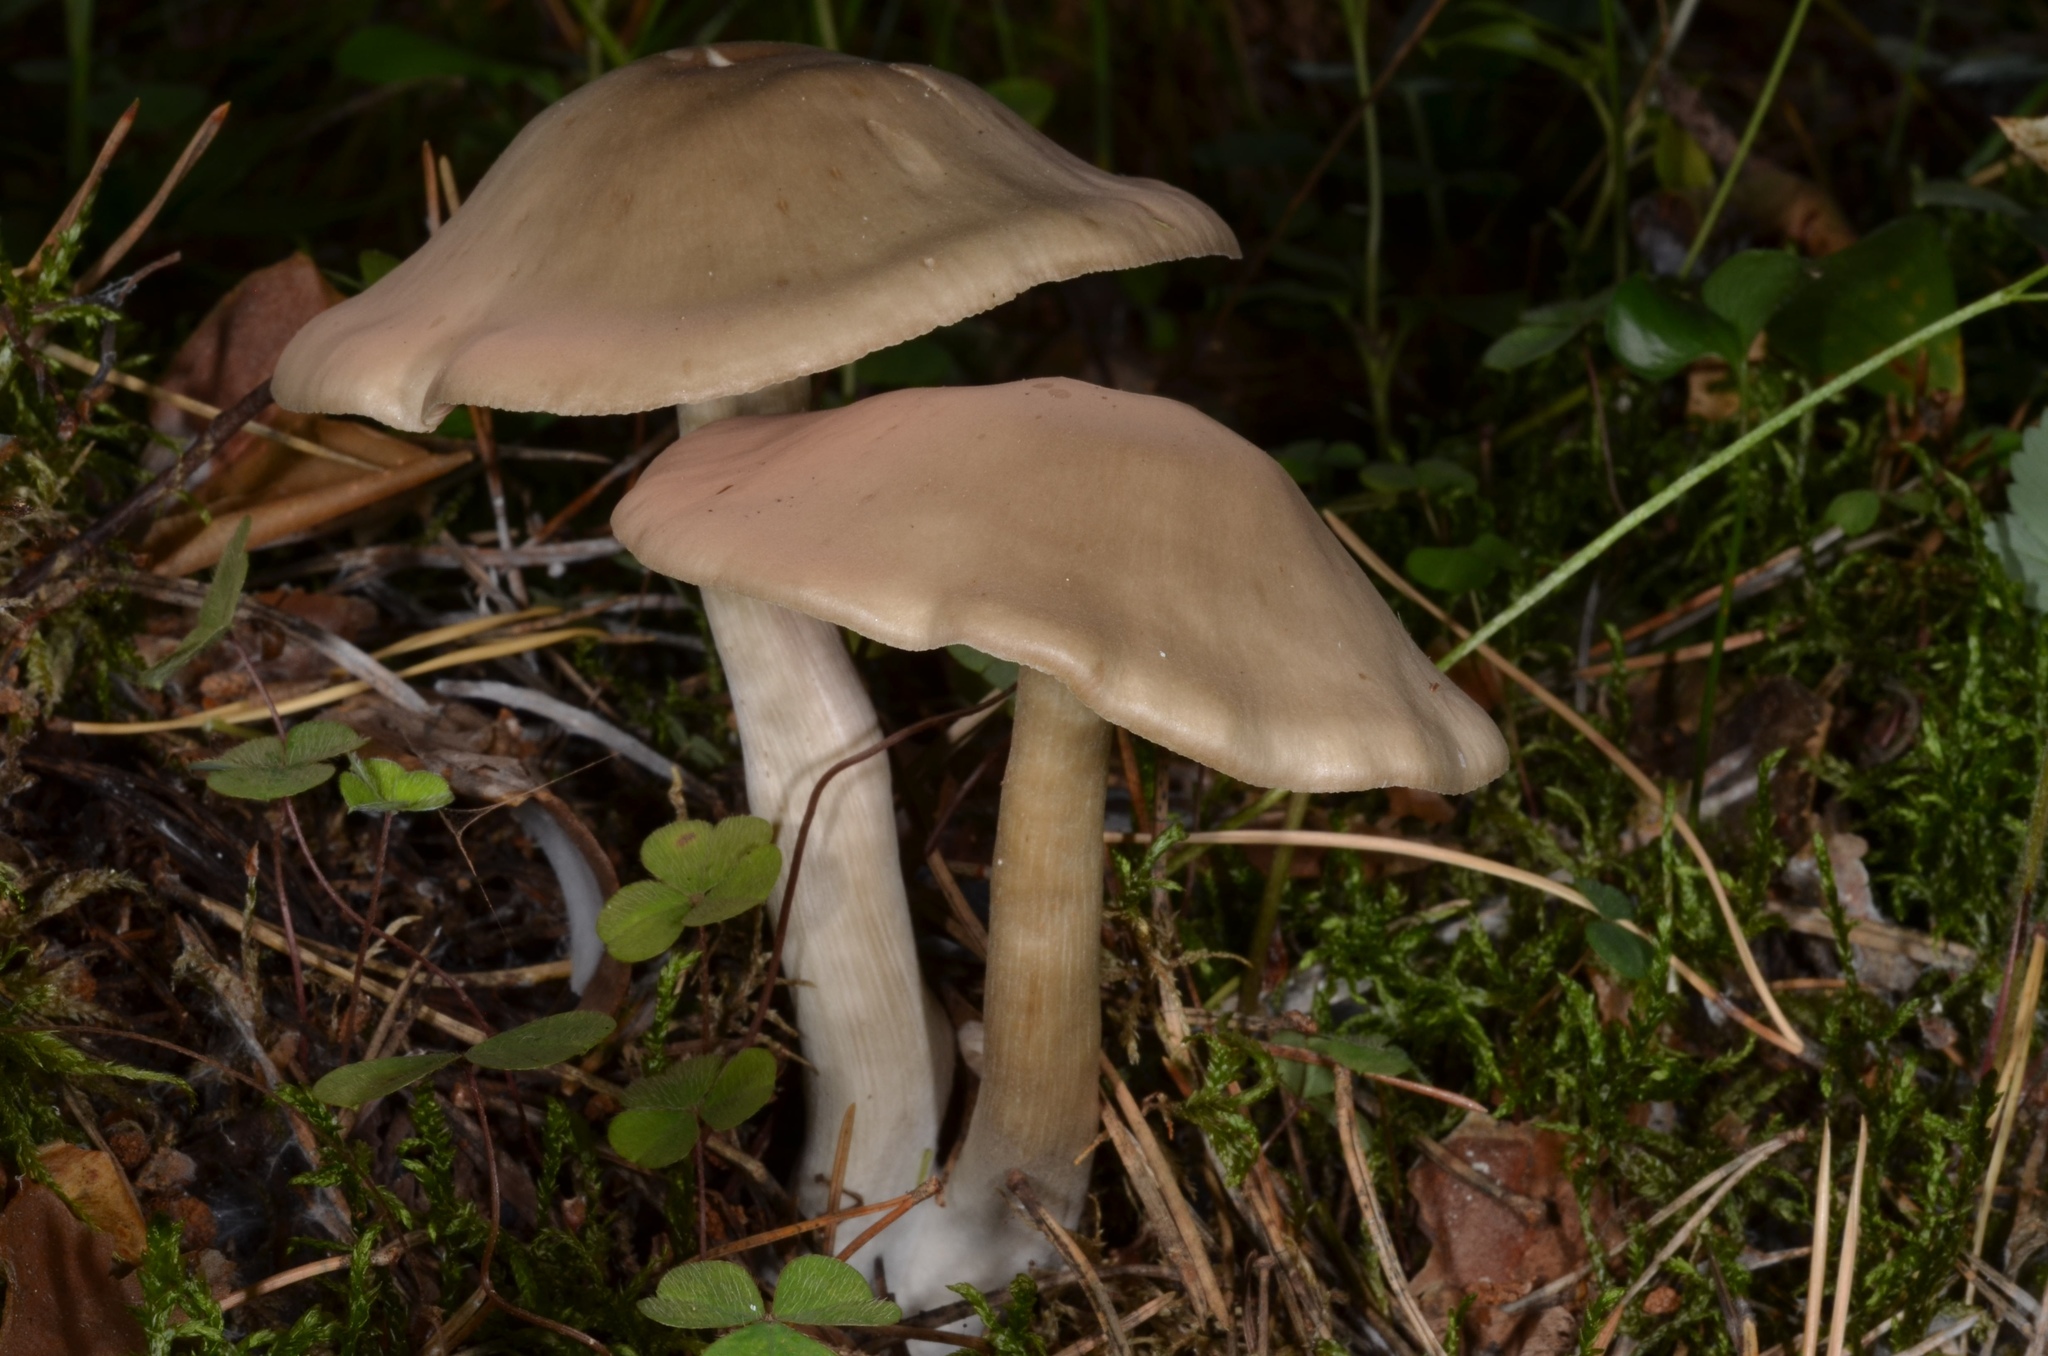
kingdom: Fungi
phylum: Basidiomycota
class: Agaricomycetes
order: Agaricales
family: Entolomataceae
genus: Entoloma
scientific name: Entoloma sericatum
